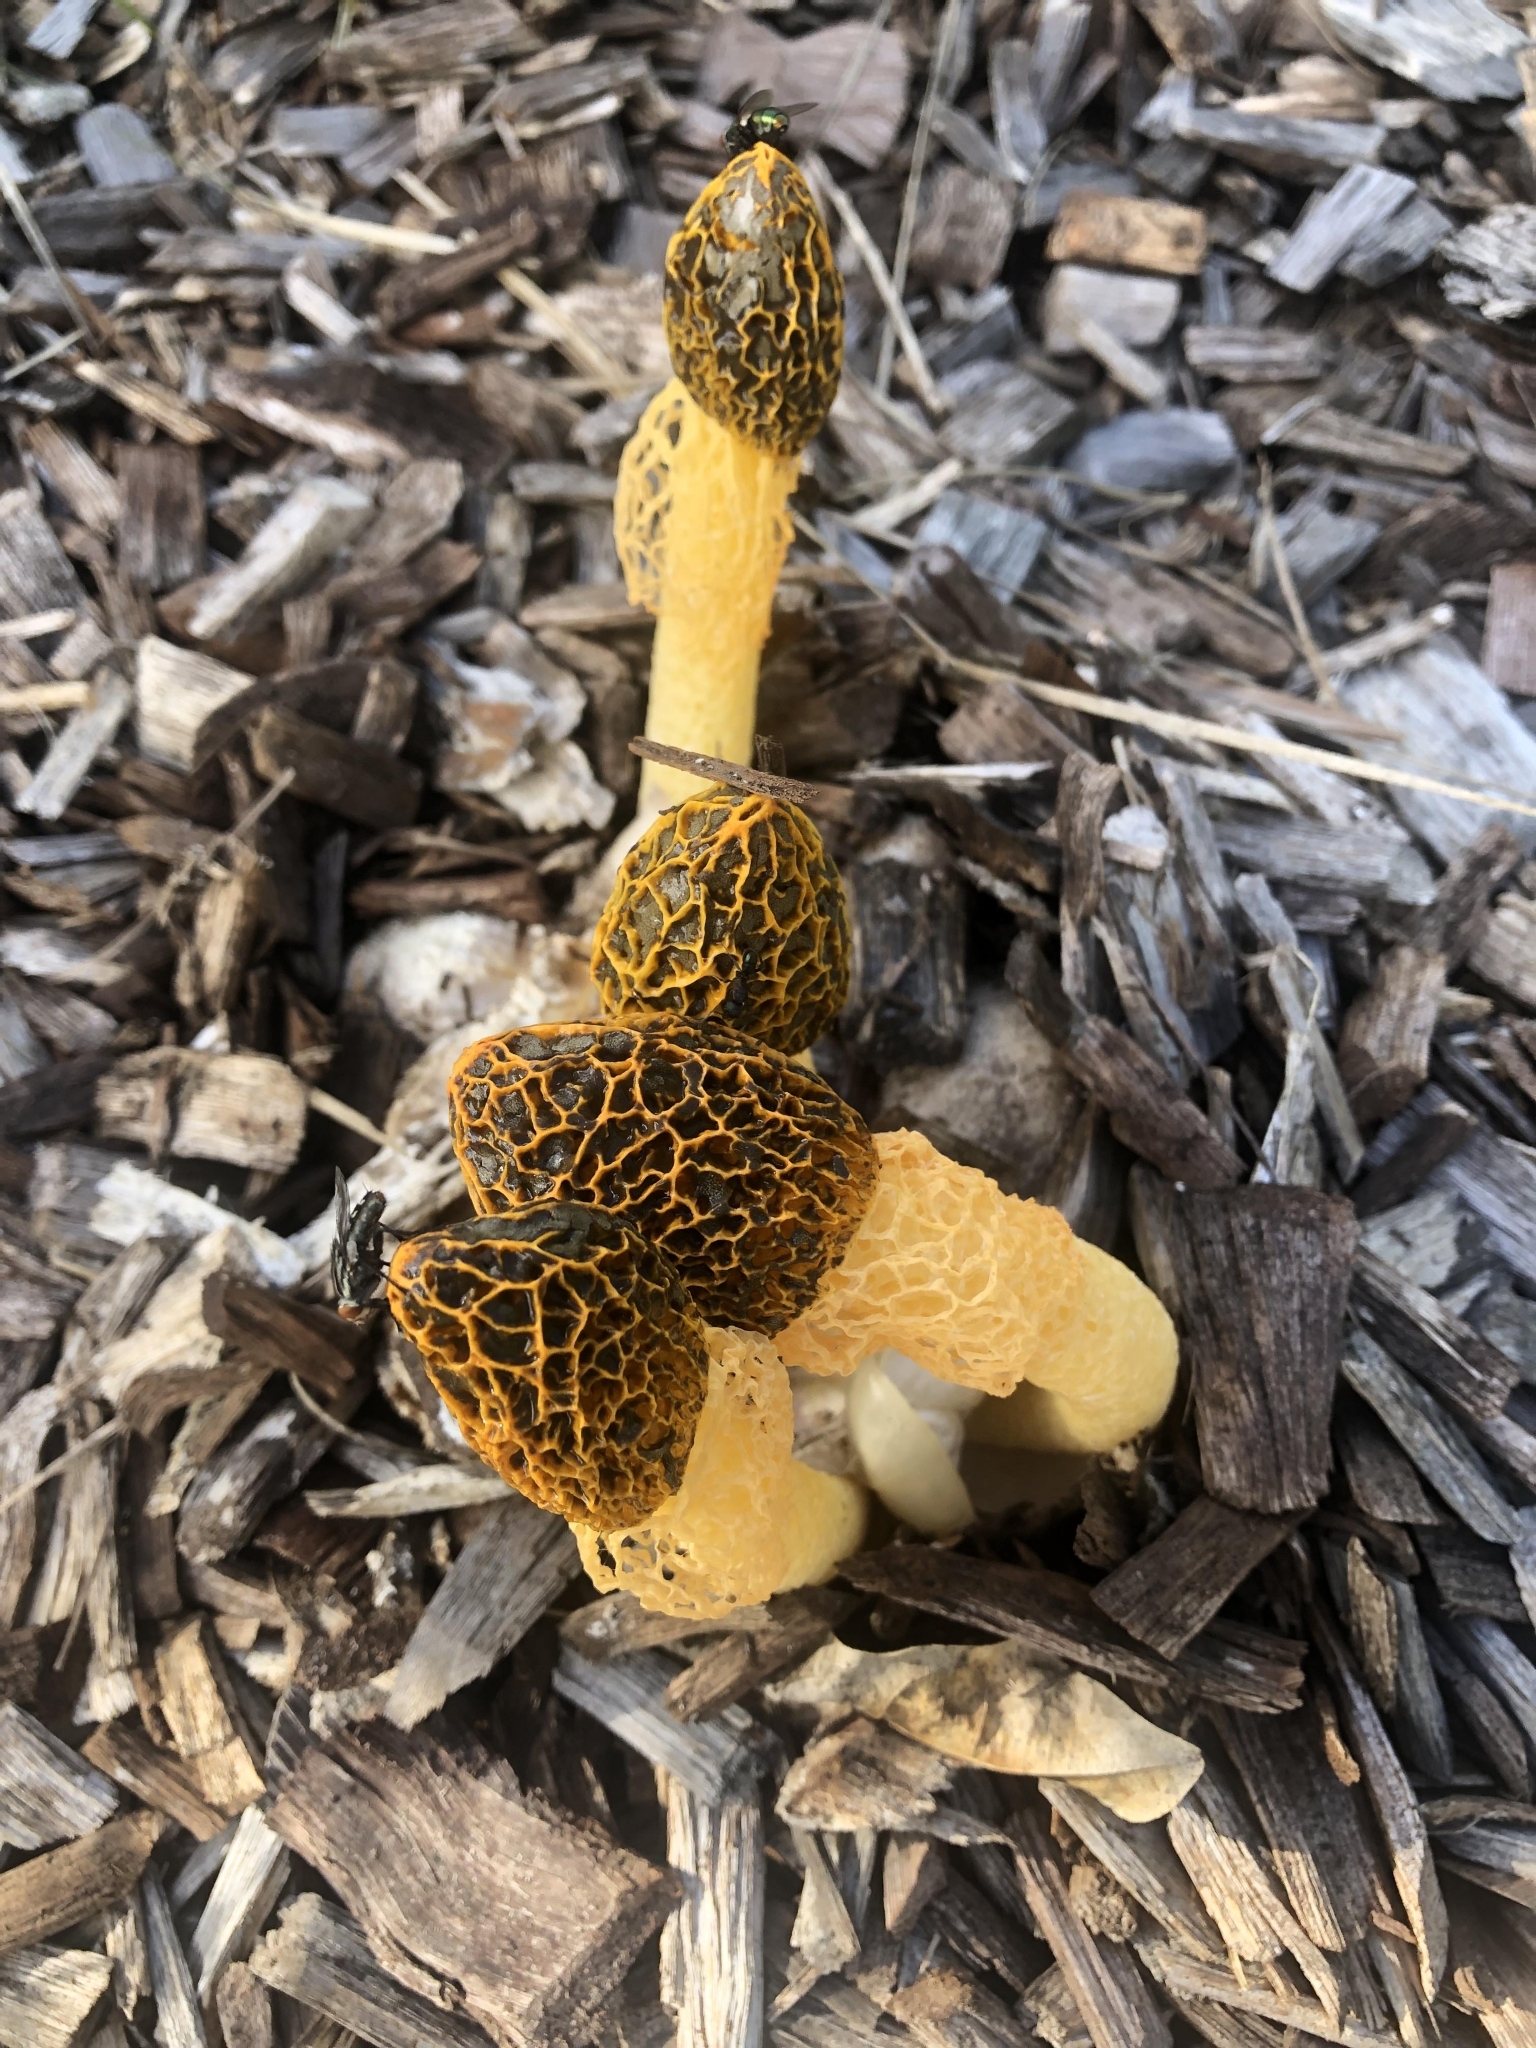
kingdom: Fungi
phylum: Basidiomycota
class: Agaricomycetes
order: Phallales
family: Phallaceae
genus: Phallus
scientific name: Phallus multicolor
